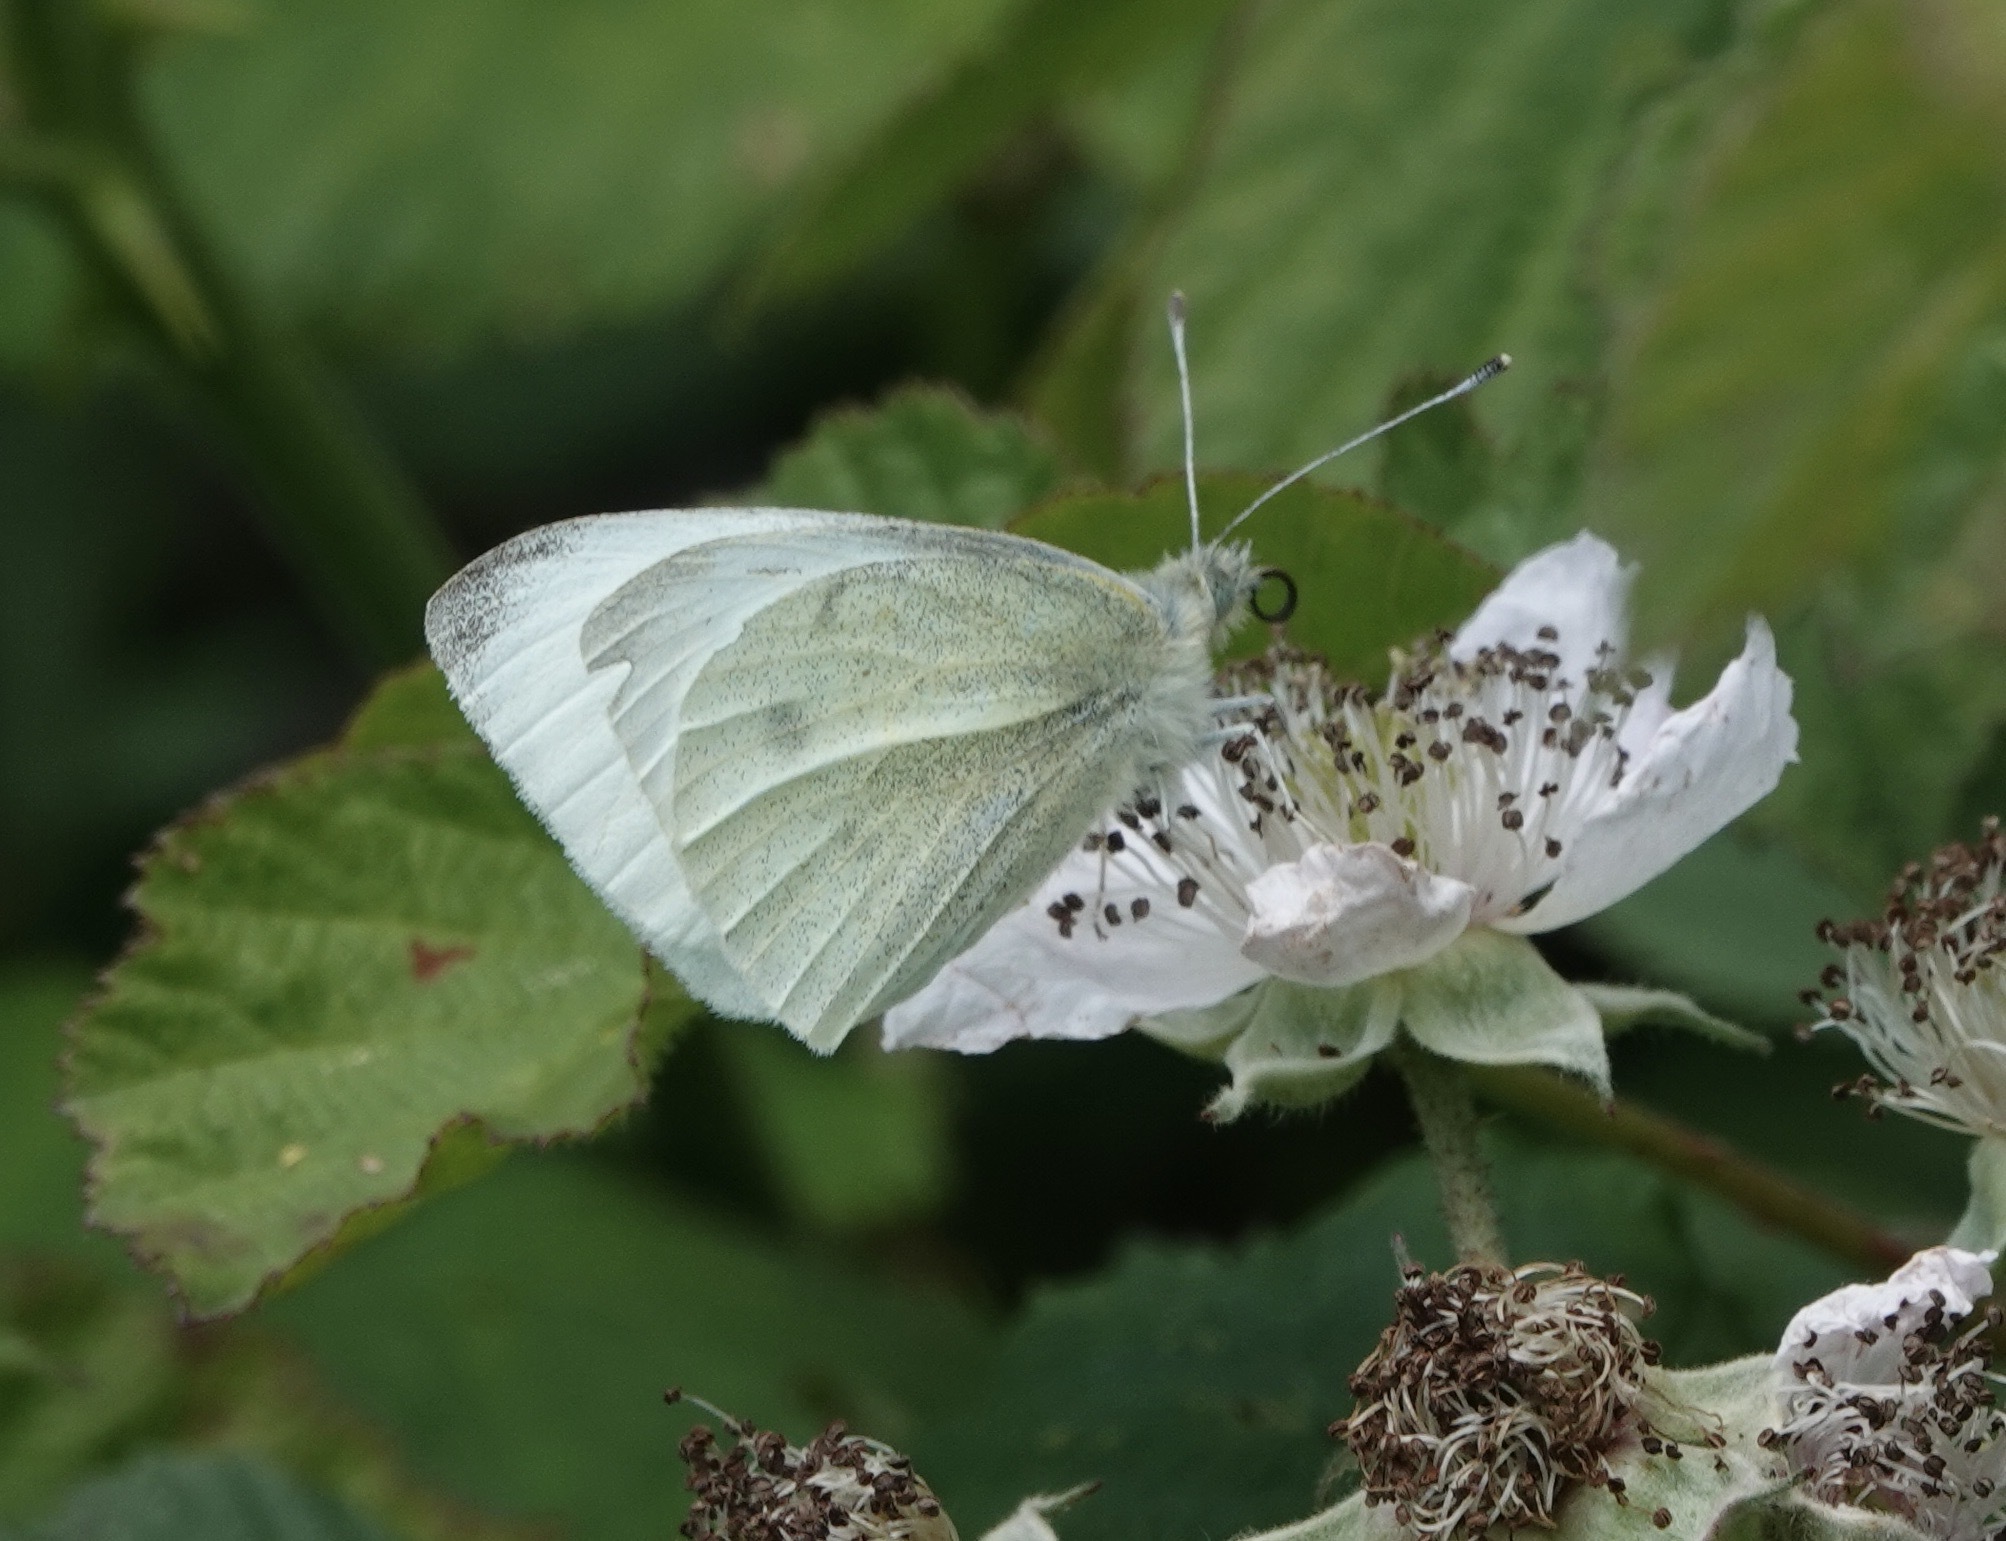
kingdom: Animalia
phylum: Arthropoda
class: Insecta
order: Lepidoptera
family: Pieridae
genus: Pieris
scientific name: Pieris rapae
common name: Small white
